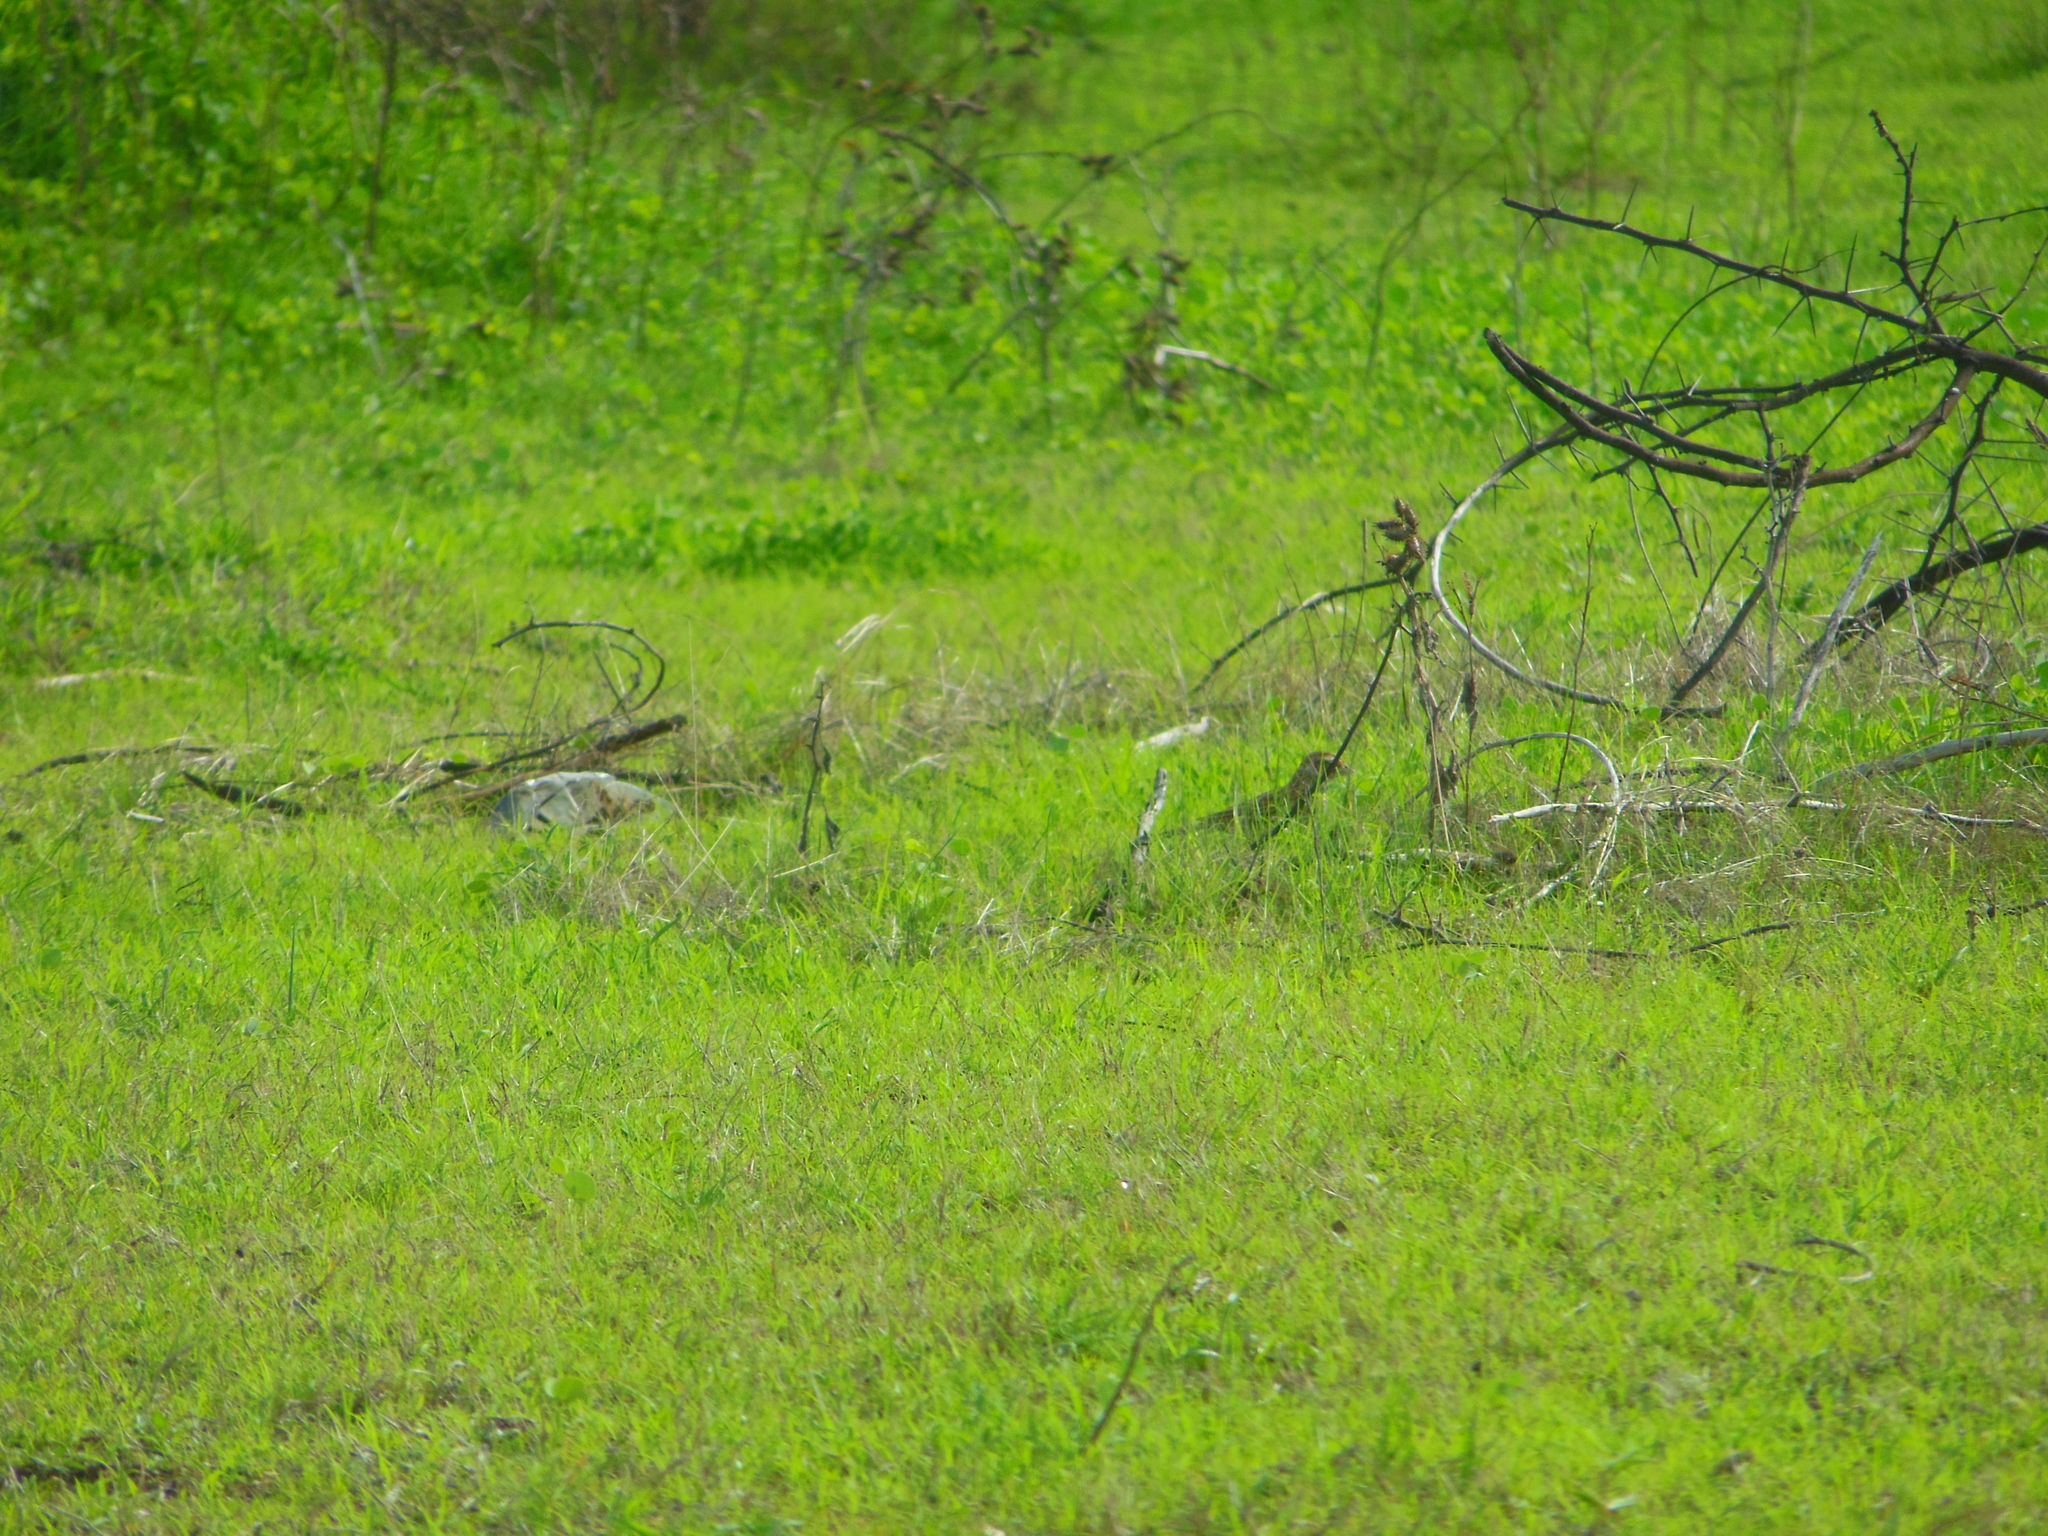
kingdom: Animalia
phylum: Chordata
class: Aves
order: Passeriformes
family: Motacillidae
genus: Anthus
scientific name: Anthus campestris
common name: Tawny pipit
